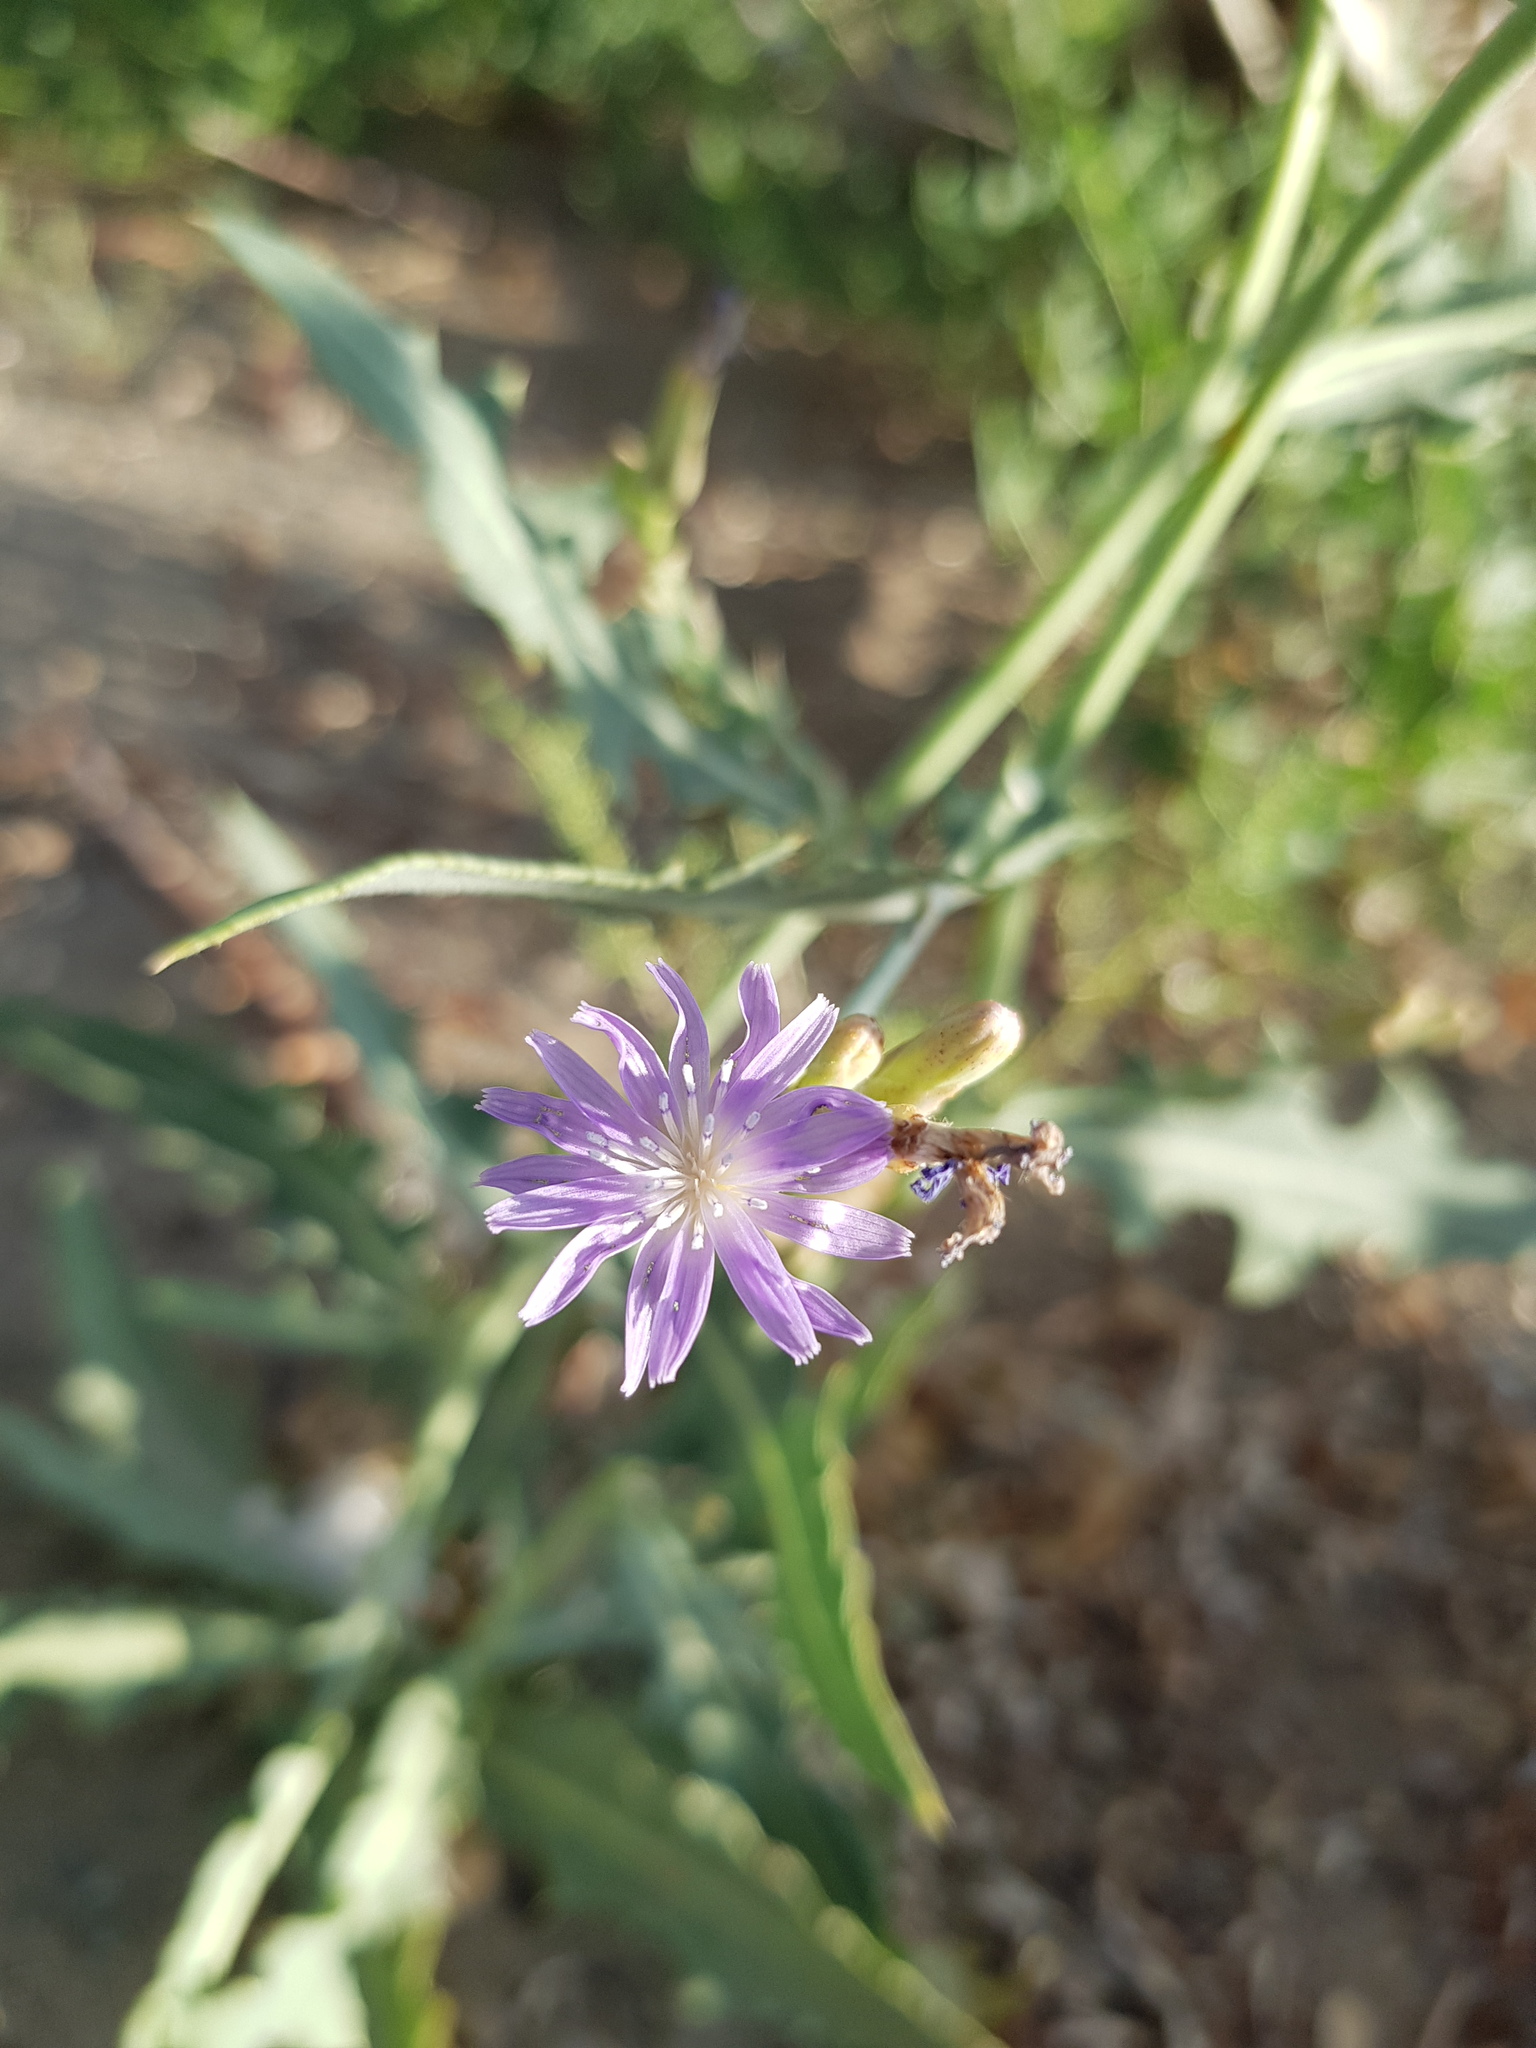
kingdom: Plantae
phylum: Tracheophyta
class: Magnoliopsida
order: Asterales
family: Asteraceae
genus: Lactuca
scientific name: Lactuca tatarica
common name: Blue lettuce
